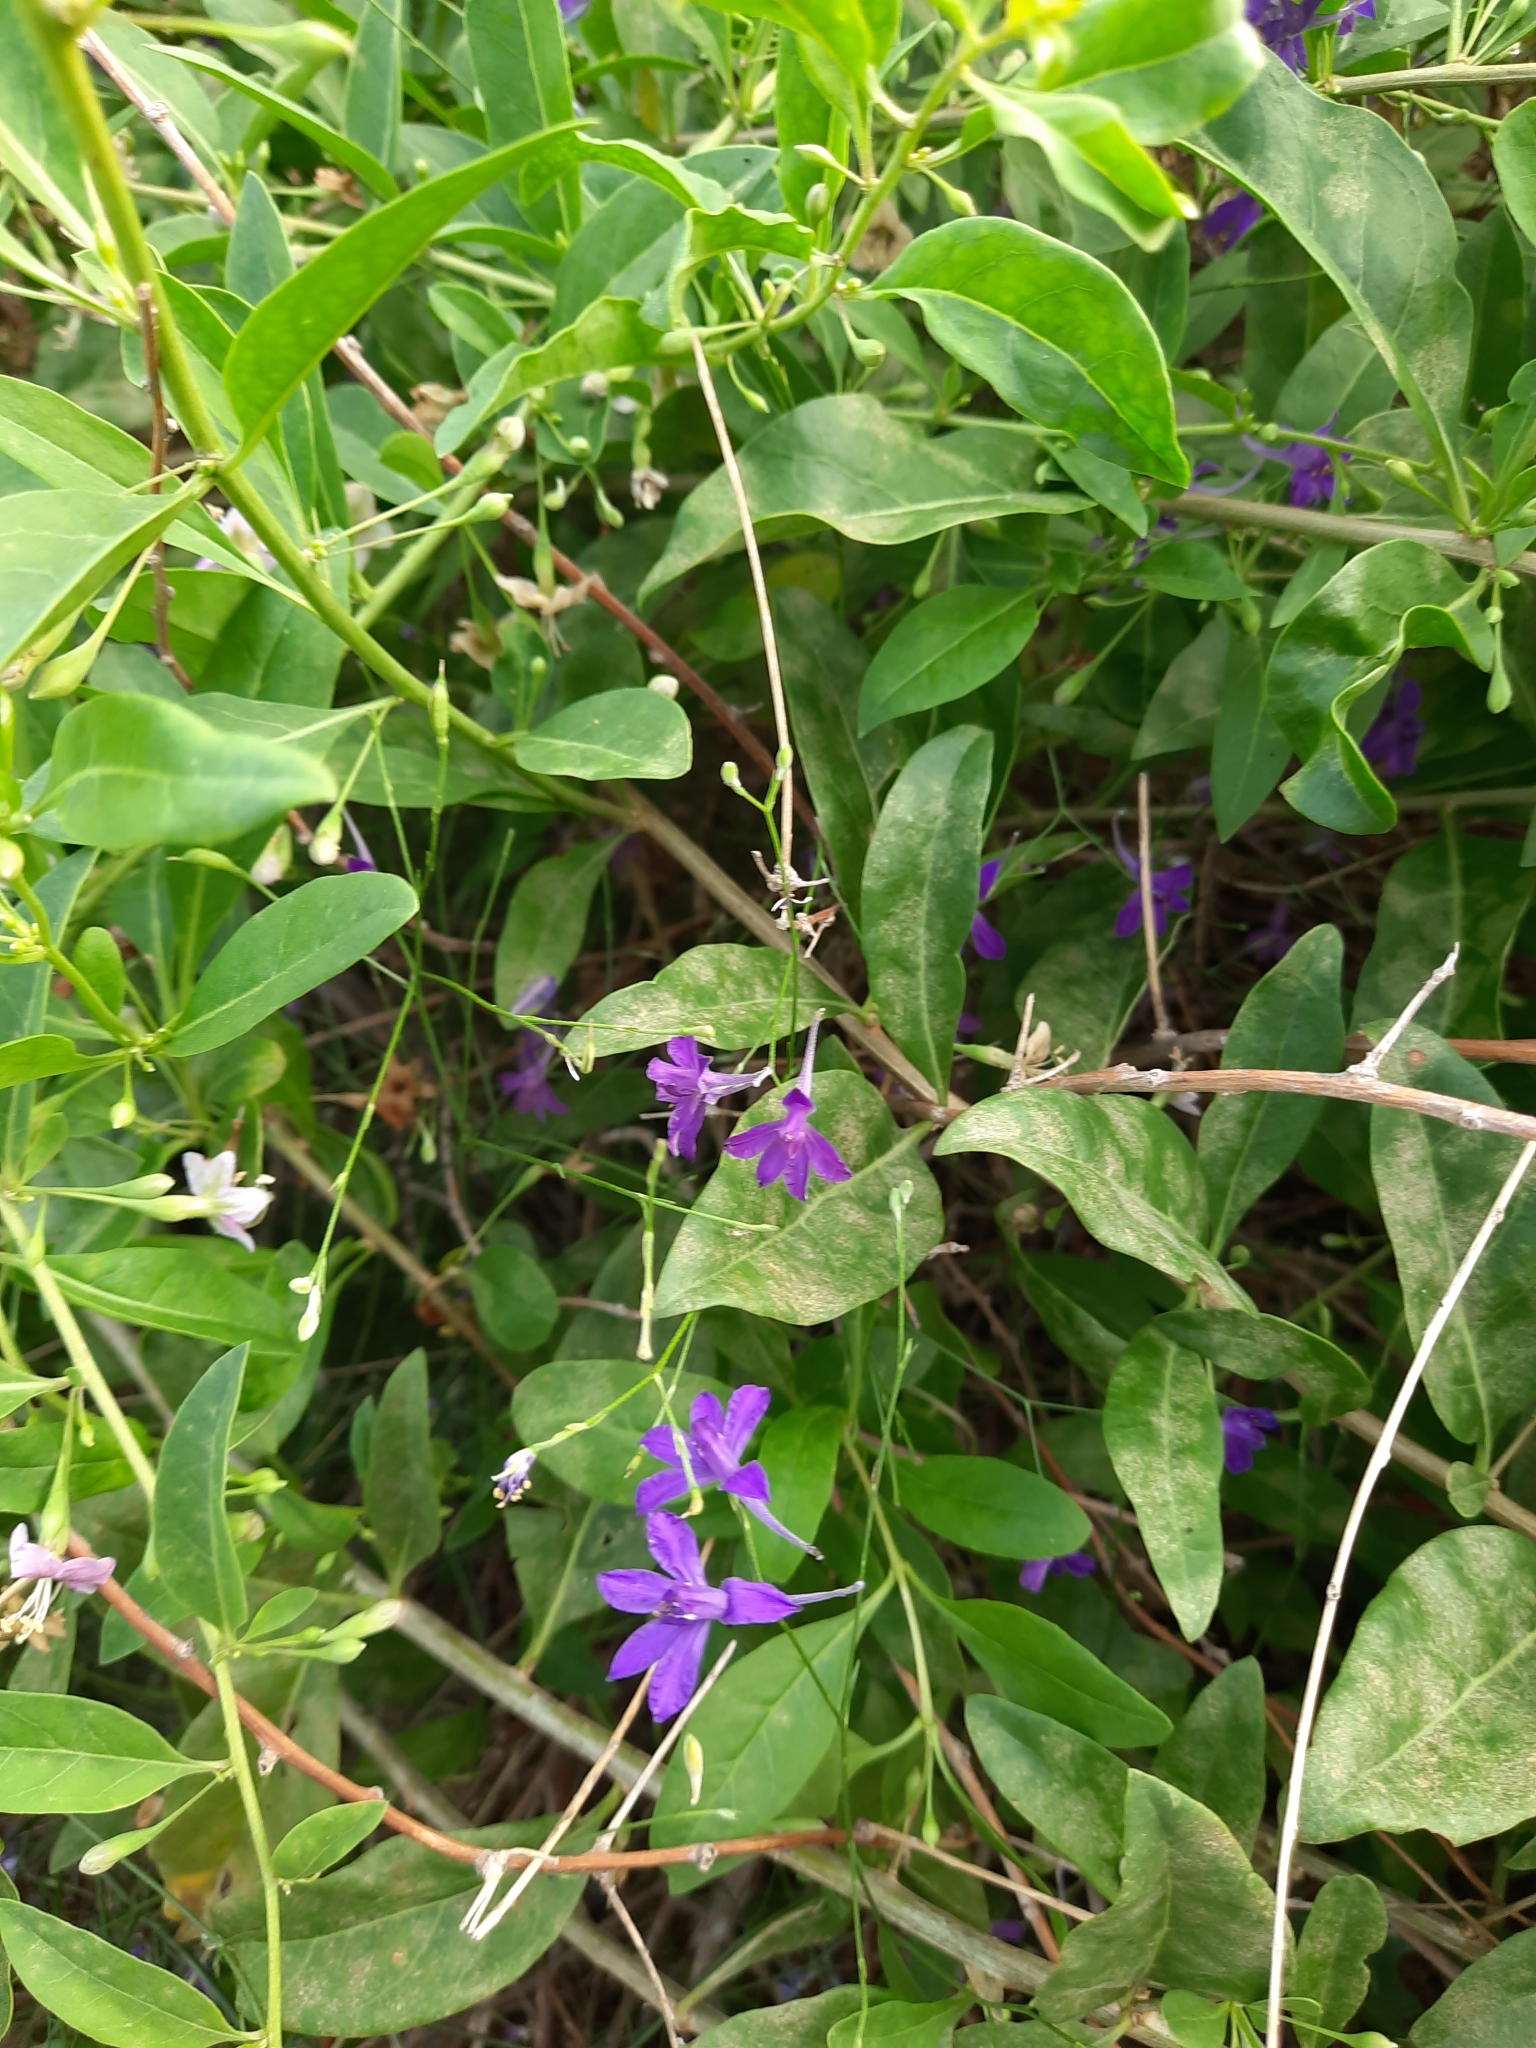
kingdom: Plantae
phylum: Tracheophyta
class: Magnoliopsida
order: Ranunculales
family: Ranunculaceae
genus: Delphinium
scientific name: Delphinium consolida
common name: Branching larkspur
